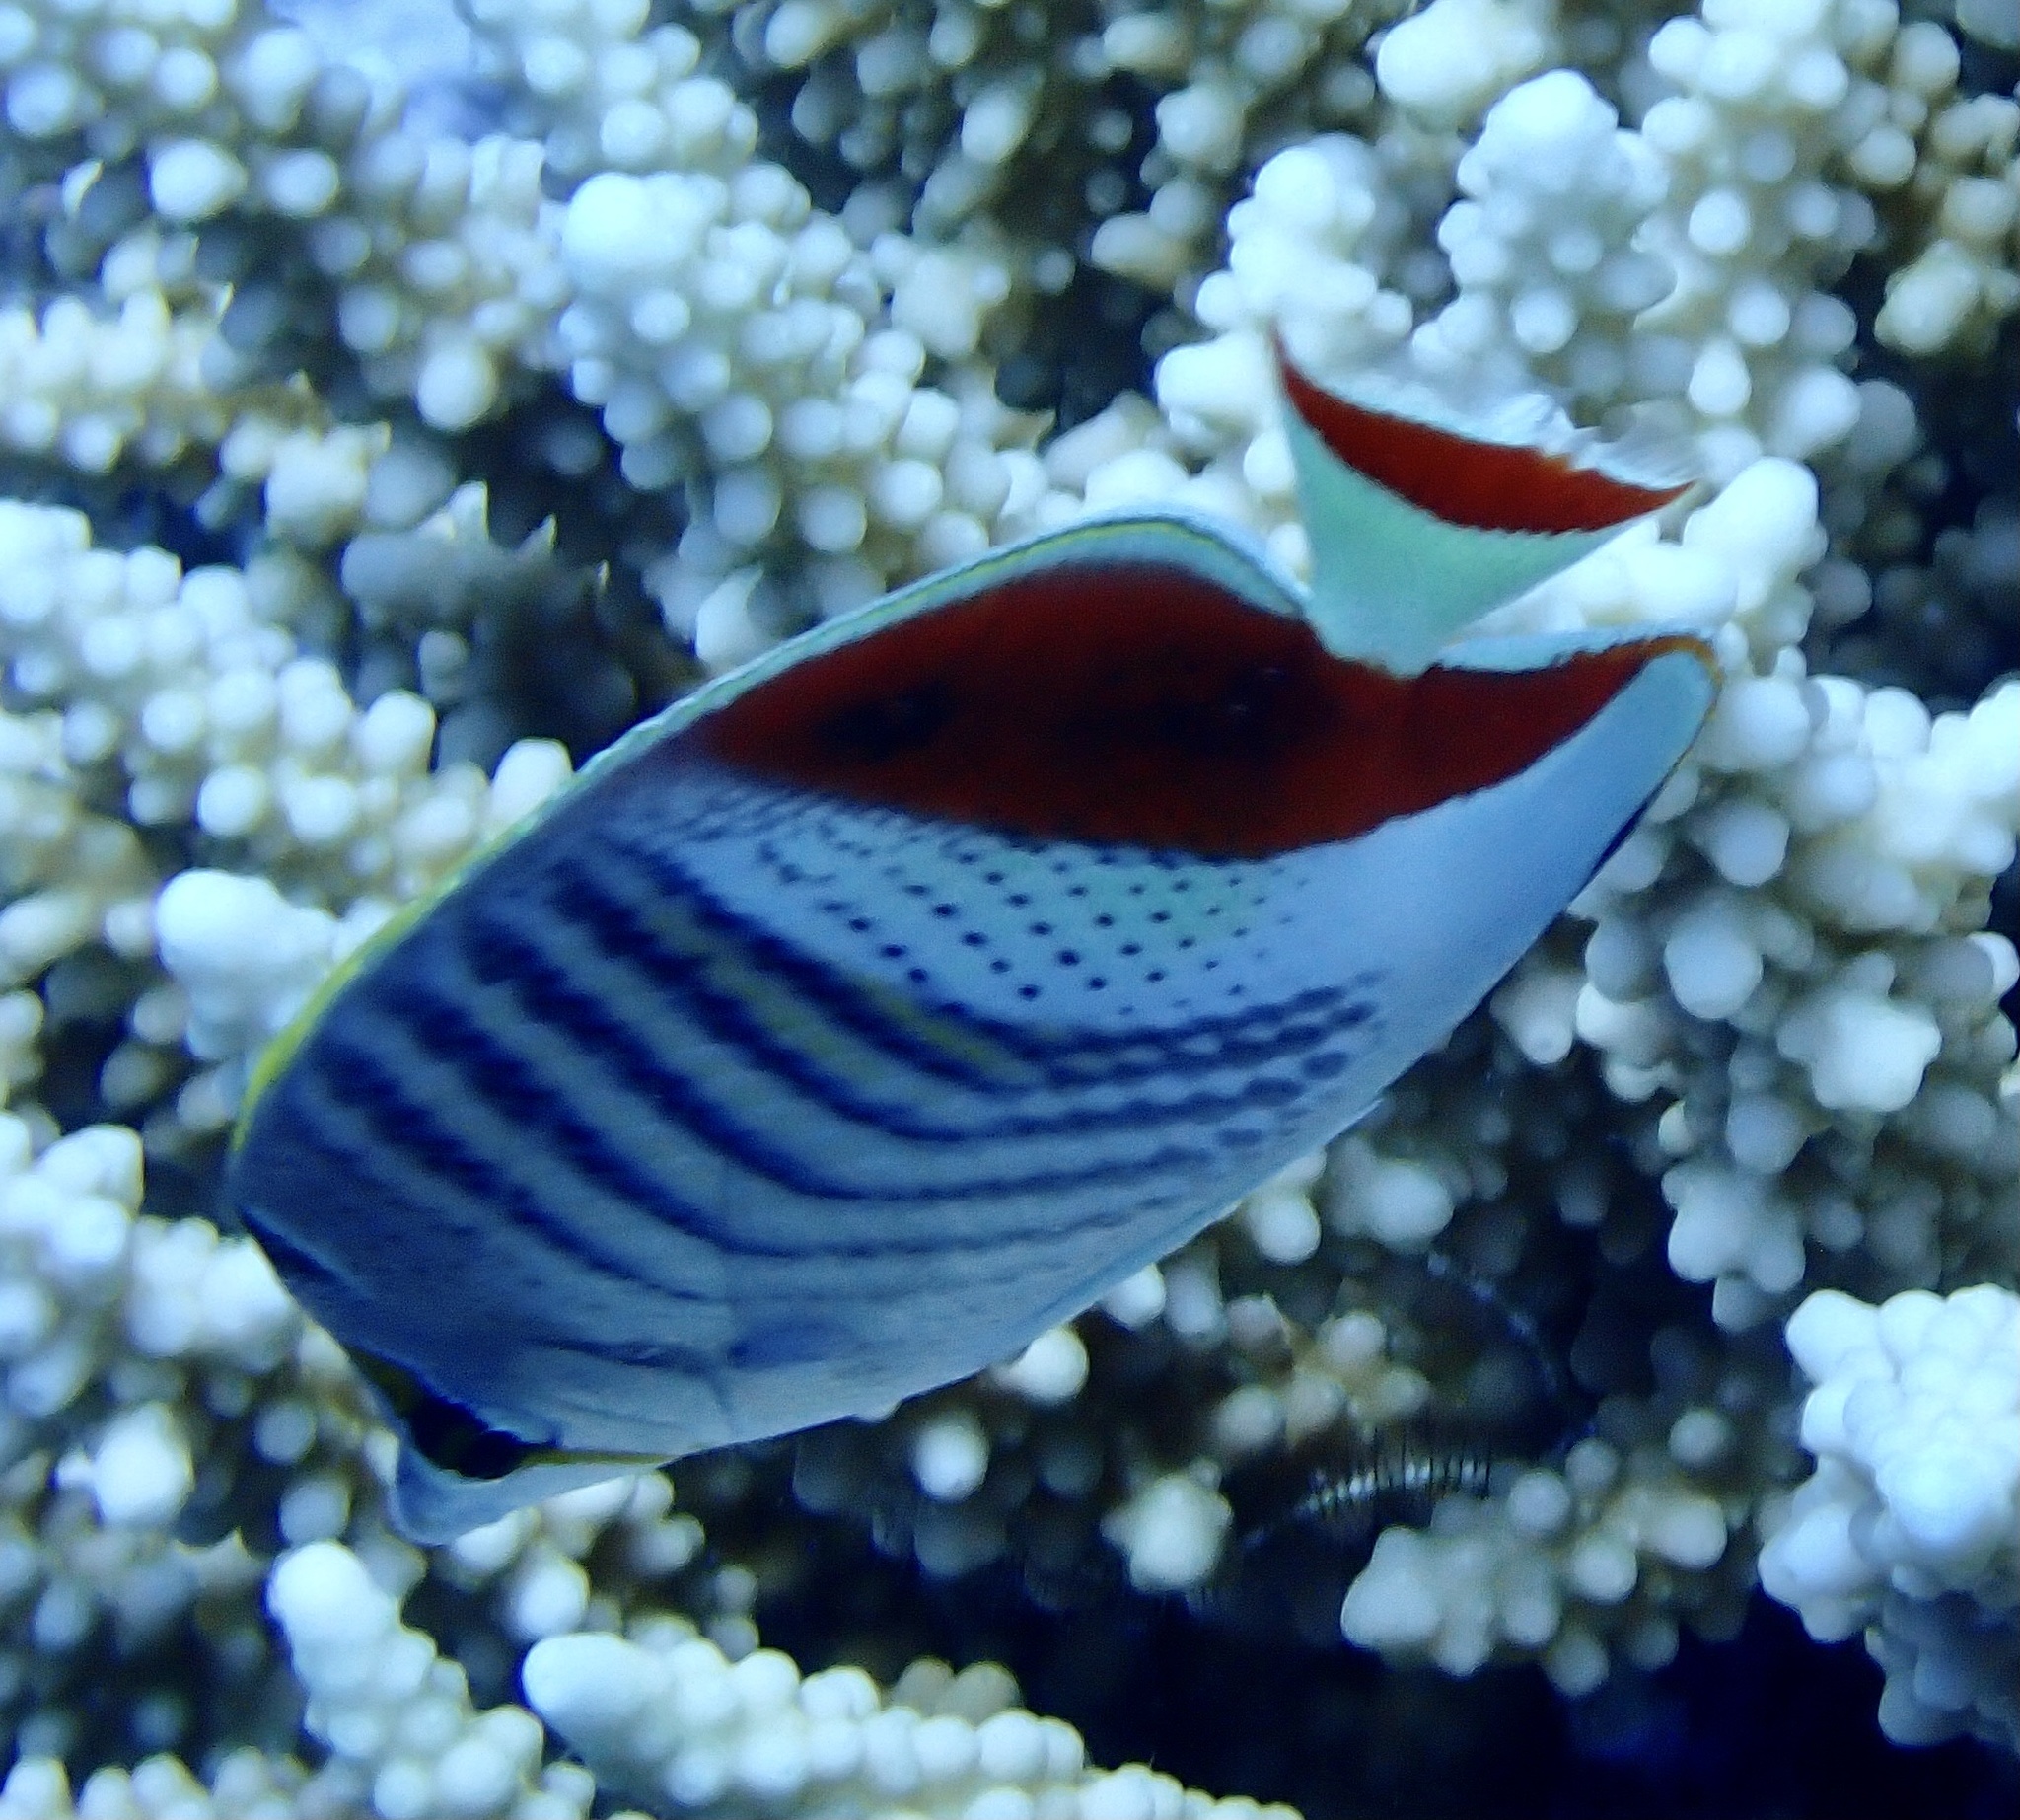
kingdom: Animalia
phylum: Chordata
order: Perciformes
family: Chaetodontidae
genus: Chaetodon
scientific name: Chaetodon paucifasciatus
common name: Crown butterflyfish
